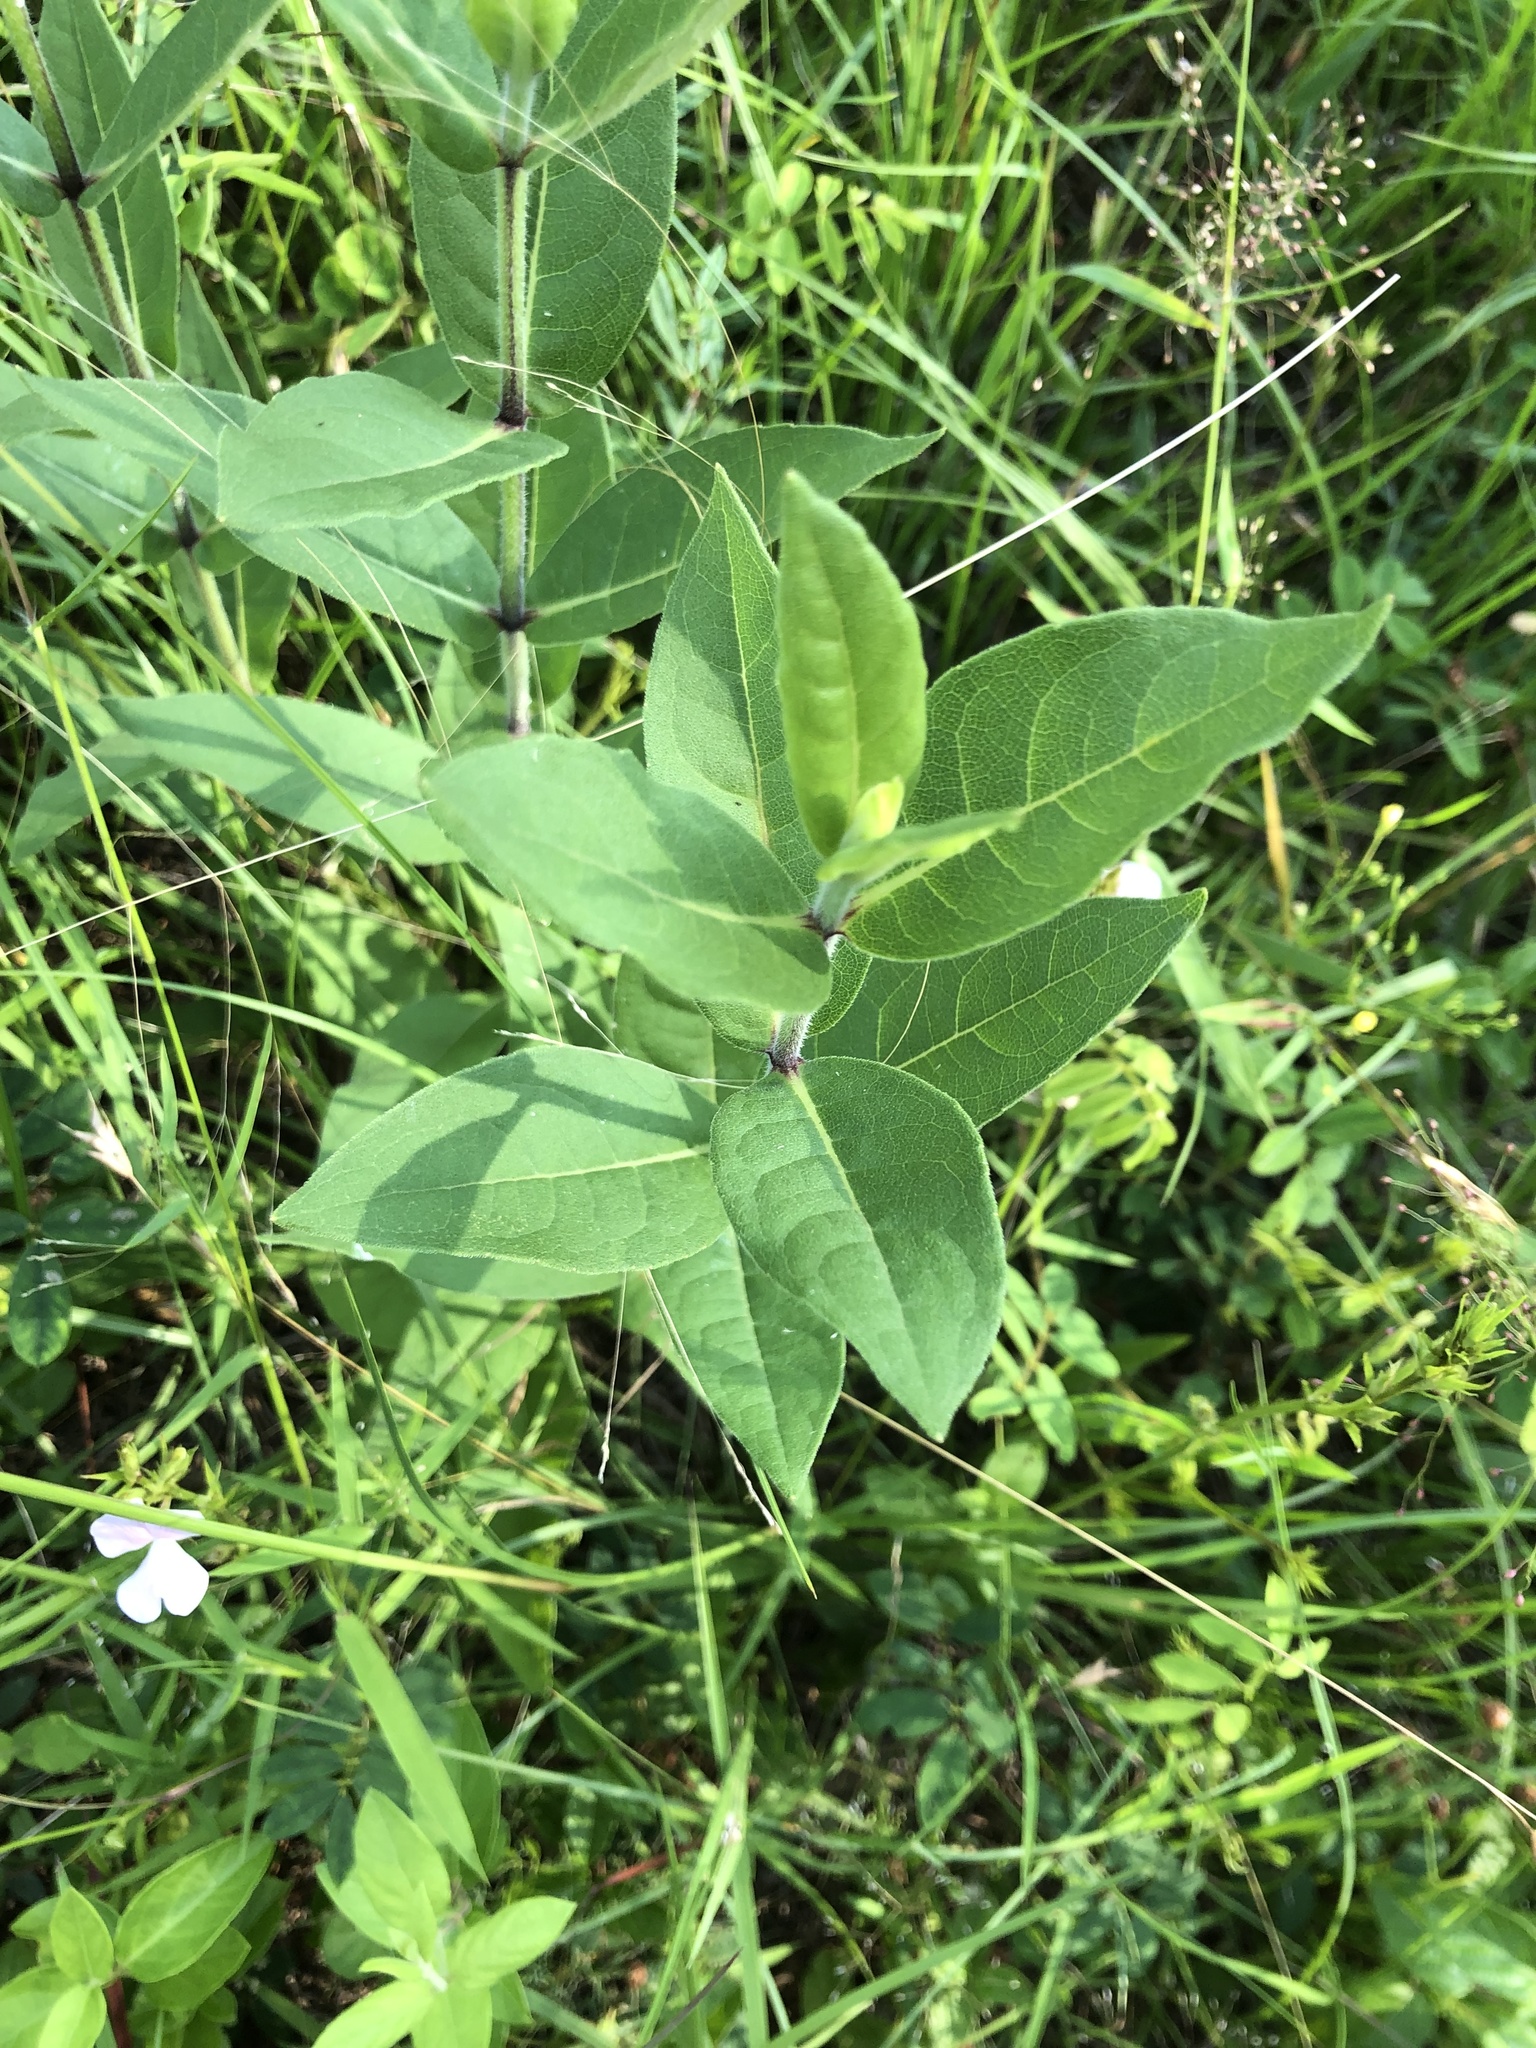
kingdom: Plantae
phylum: Tracheophyta
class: Magnoliopsida
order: Asterales
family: Asteraceae
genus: Silphium
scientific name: Silphium integrifolium
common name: Whole-leaf rosinweed
